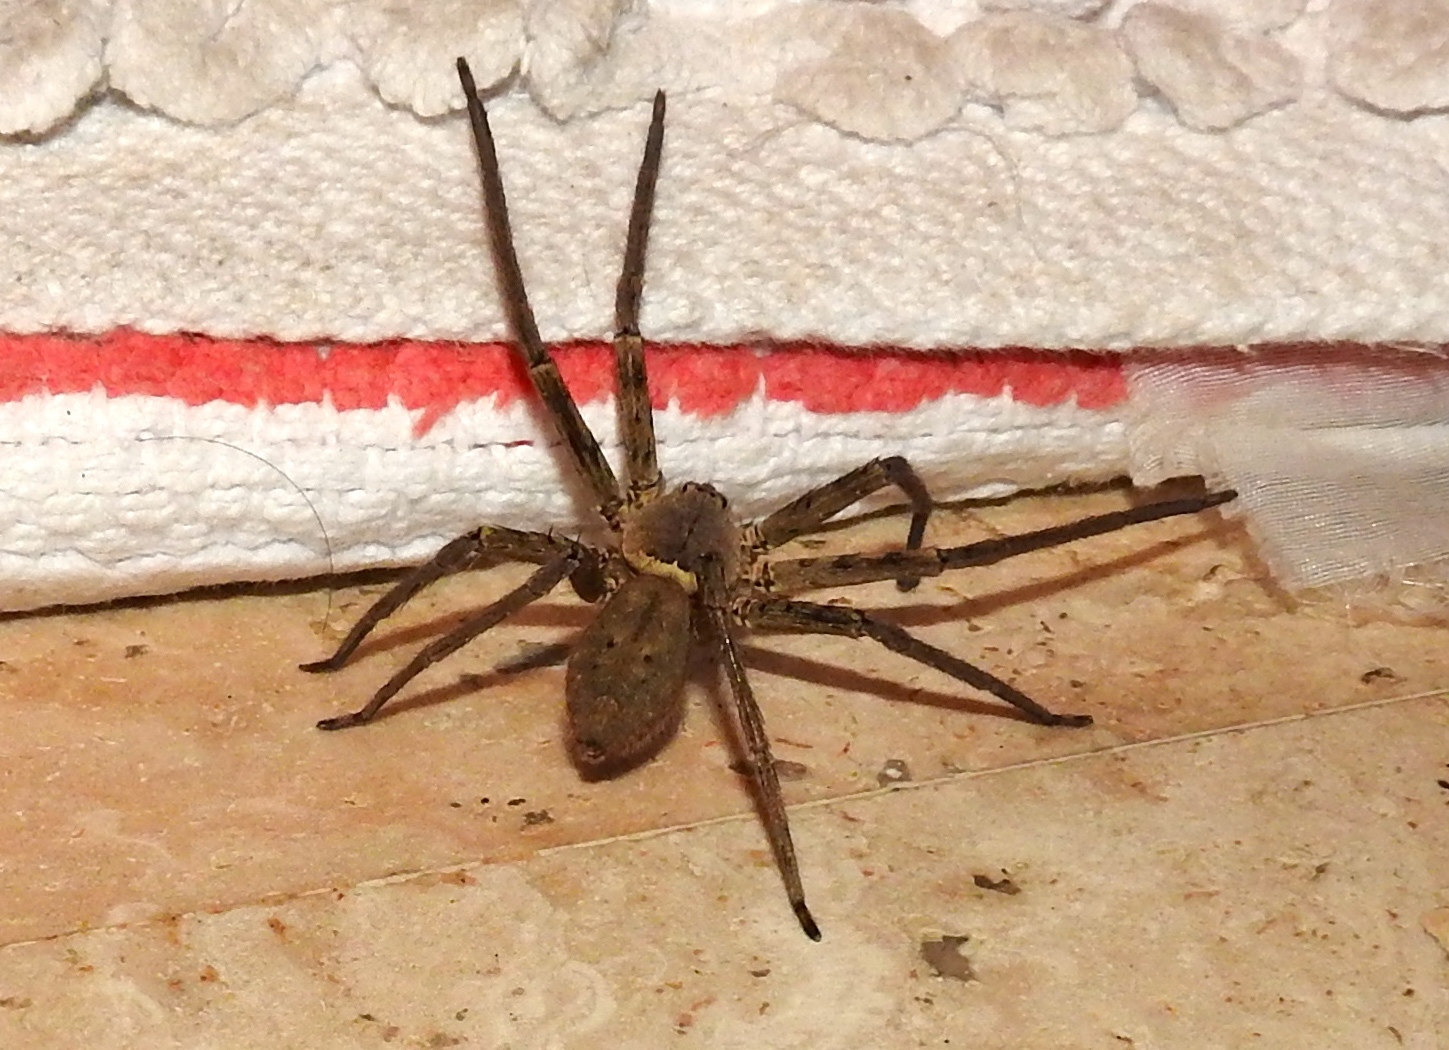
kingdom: Animalia
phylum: Arthropoda
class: Arachnida
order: Araneae
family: Sparassidae
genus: Heteropoda
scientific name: Heteropoda venatoria
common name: Huntsman spider
